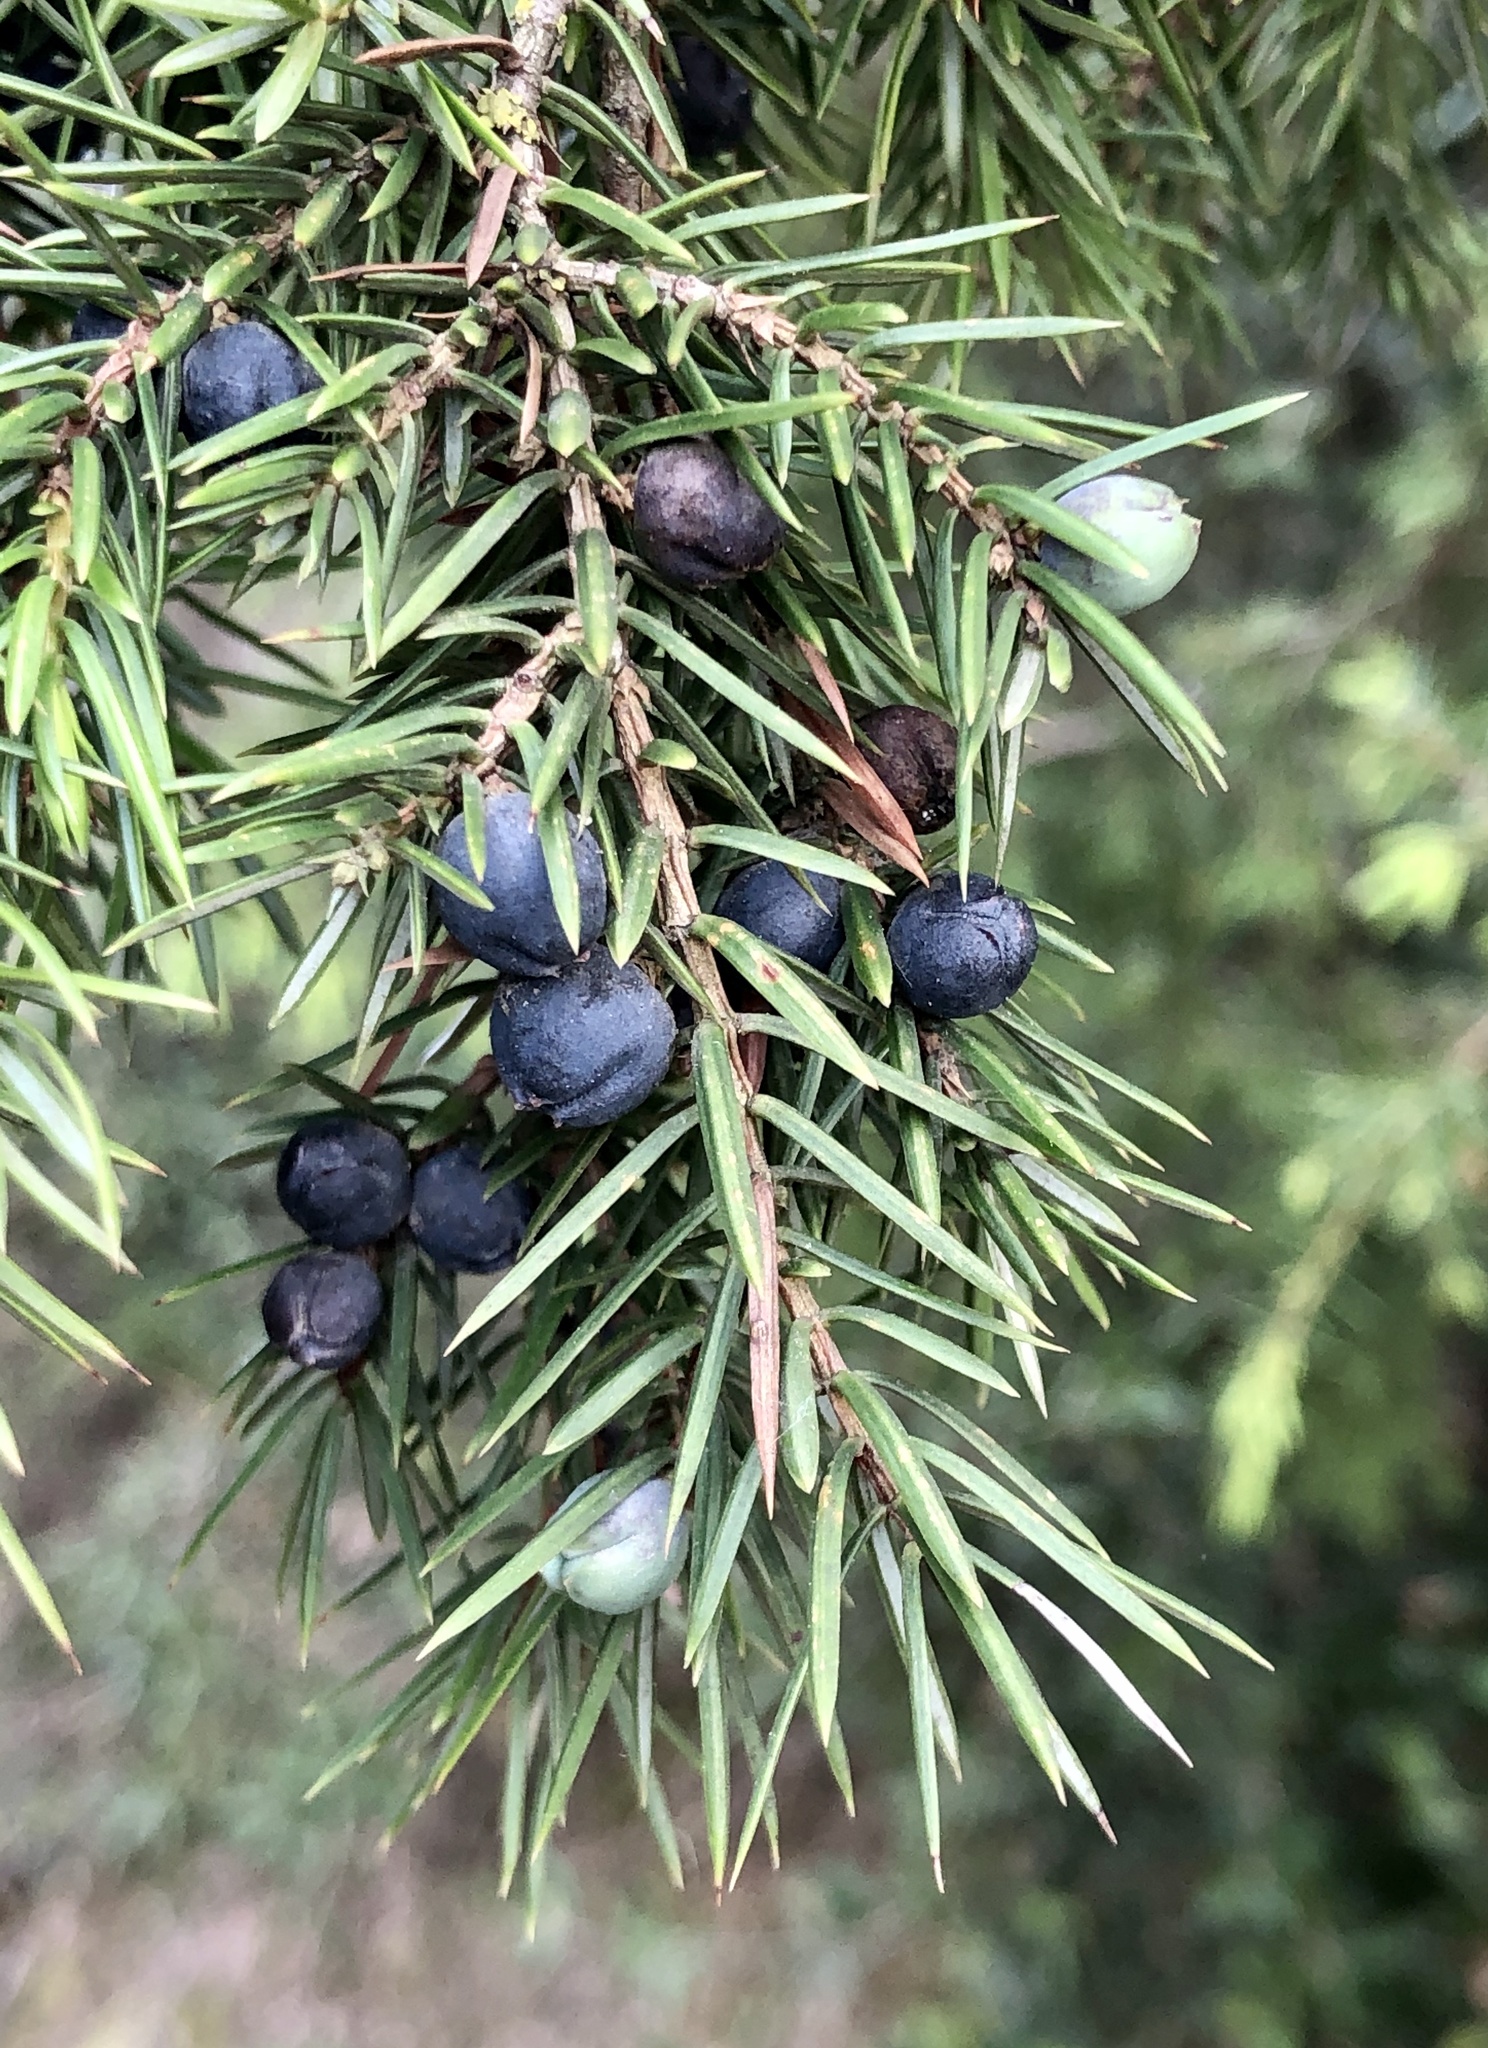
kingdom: Plantae
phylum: Tracheophyta
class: Pinopsida
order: Pinales
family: Cupressaceae
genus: Juniperus
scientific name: Juniperus communis
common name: Common juniper
